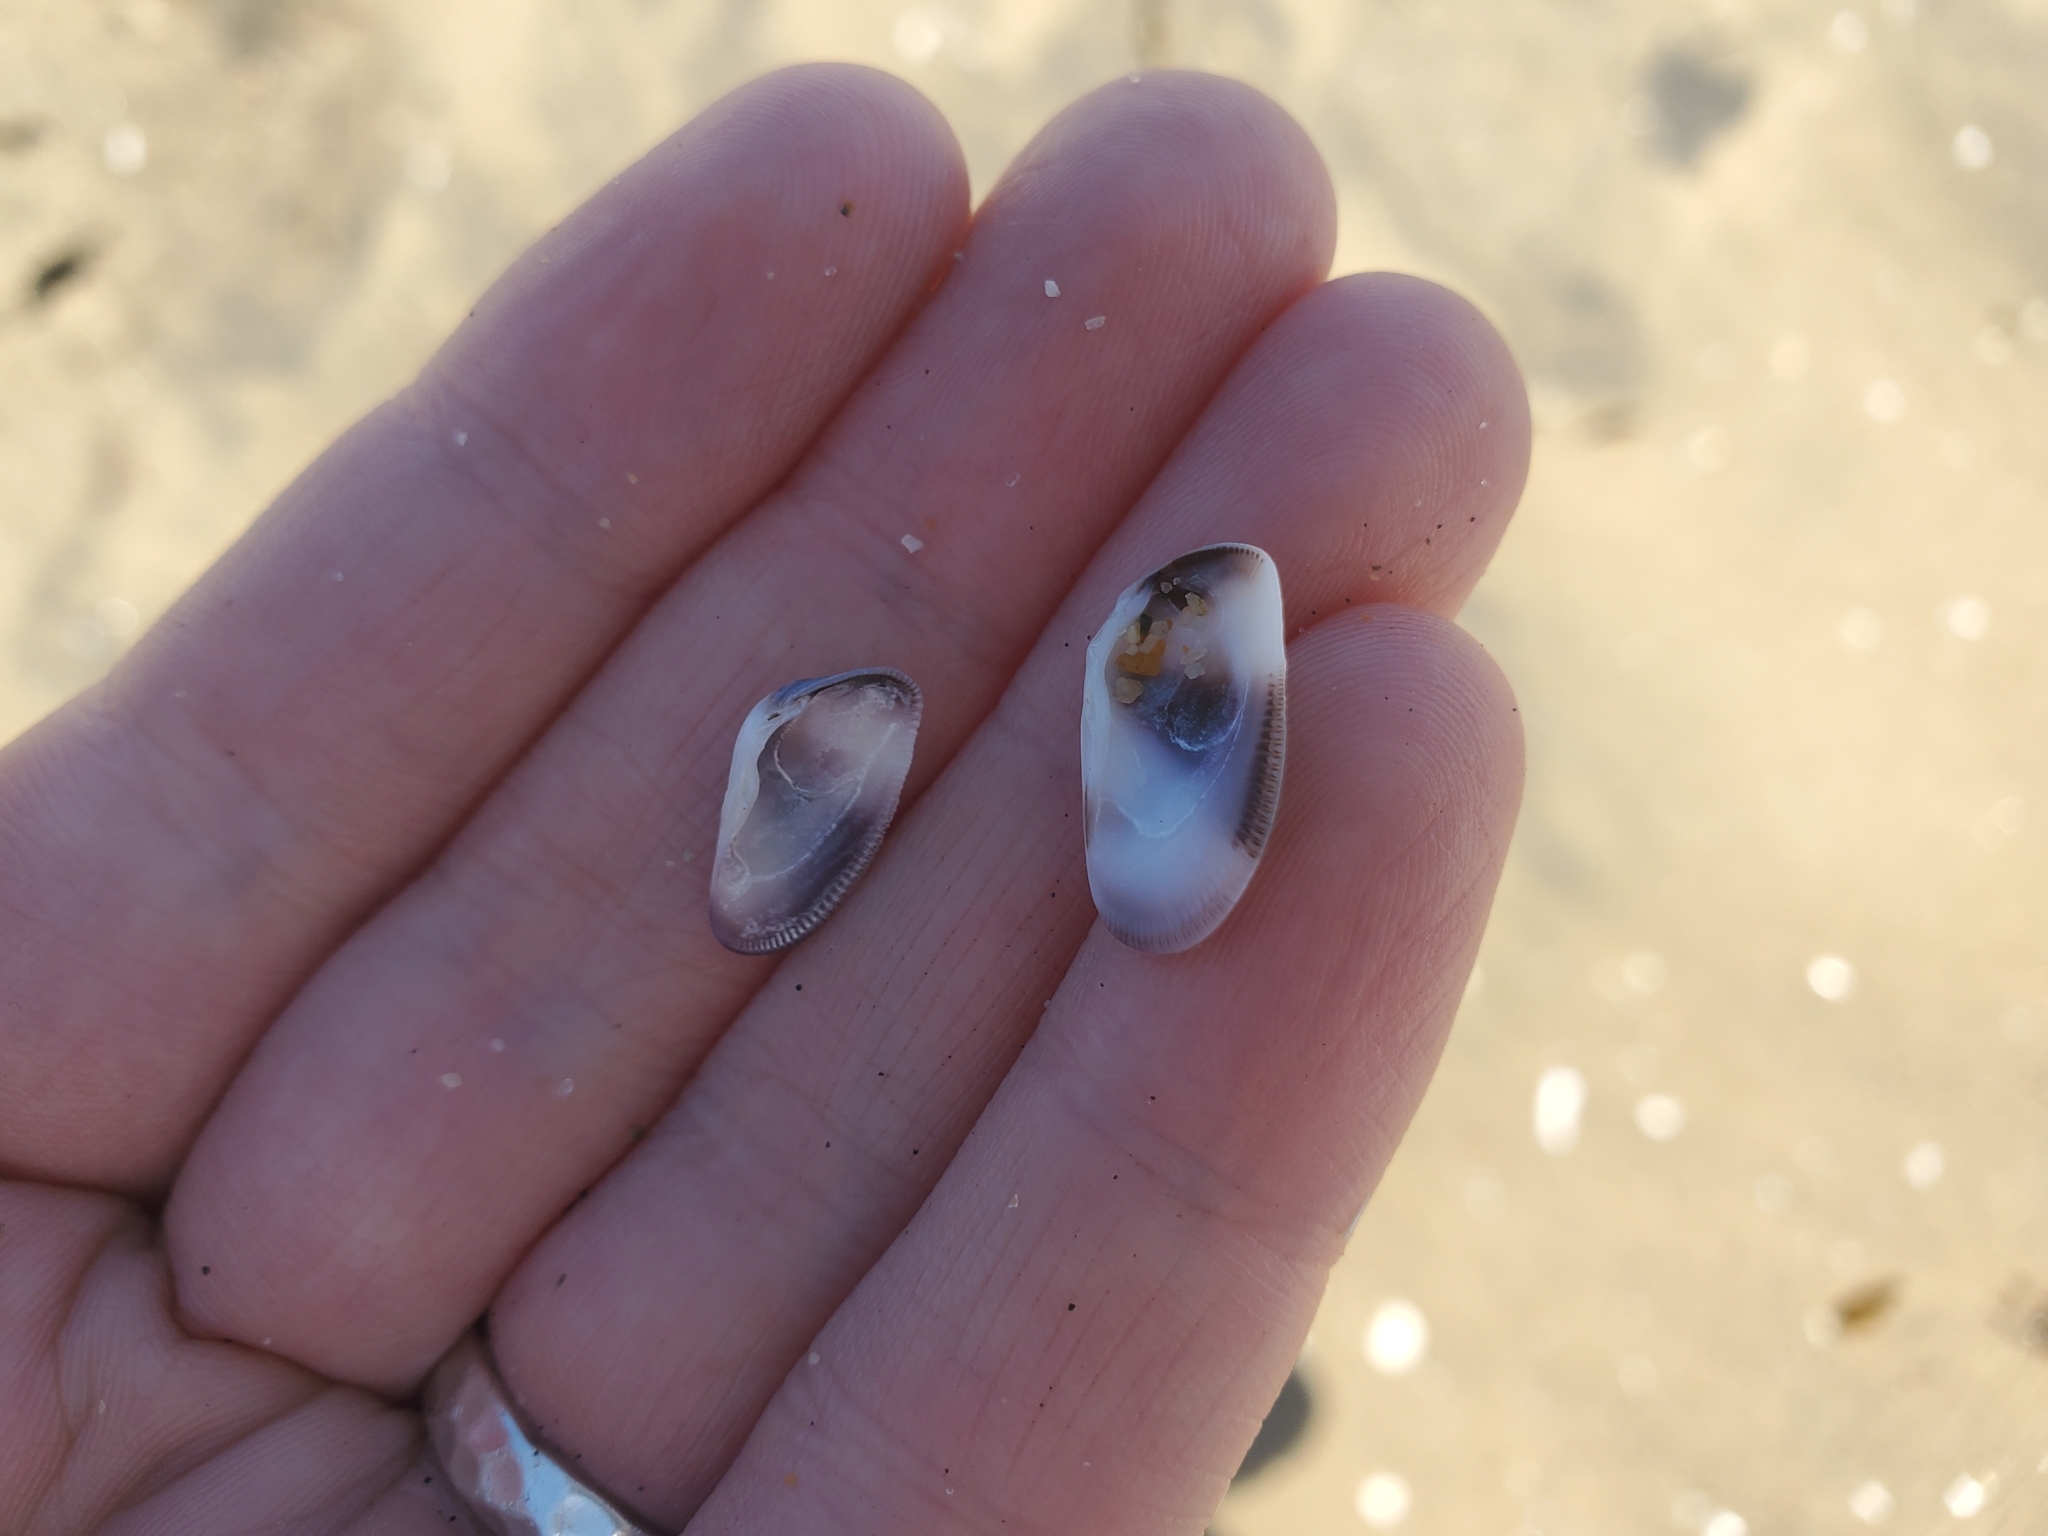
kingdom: Animalia
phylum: Mollusca
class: Bivalvia
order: Cardiida
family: Donacidae
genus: Donax
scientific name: Donax gouldii
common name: Gould beanclam
